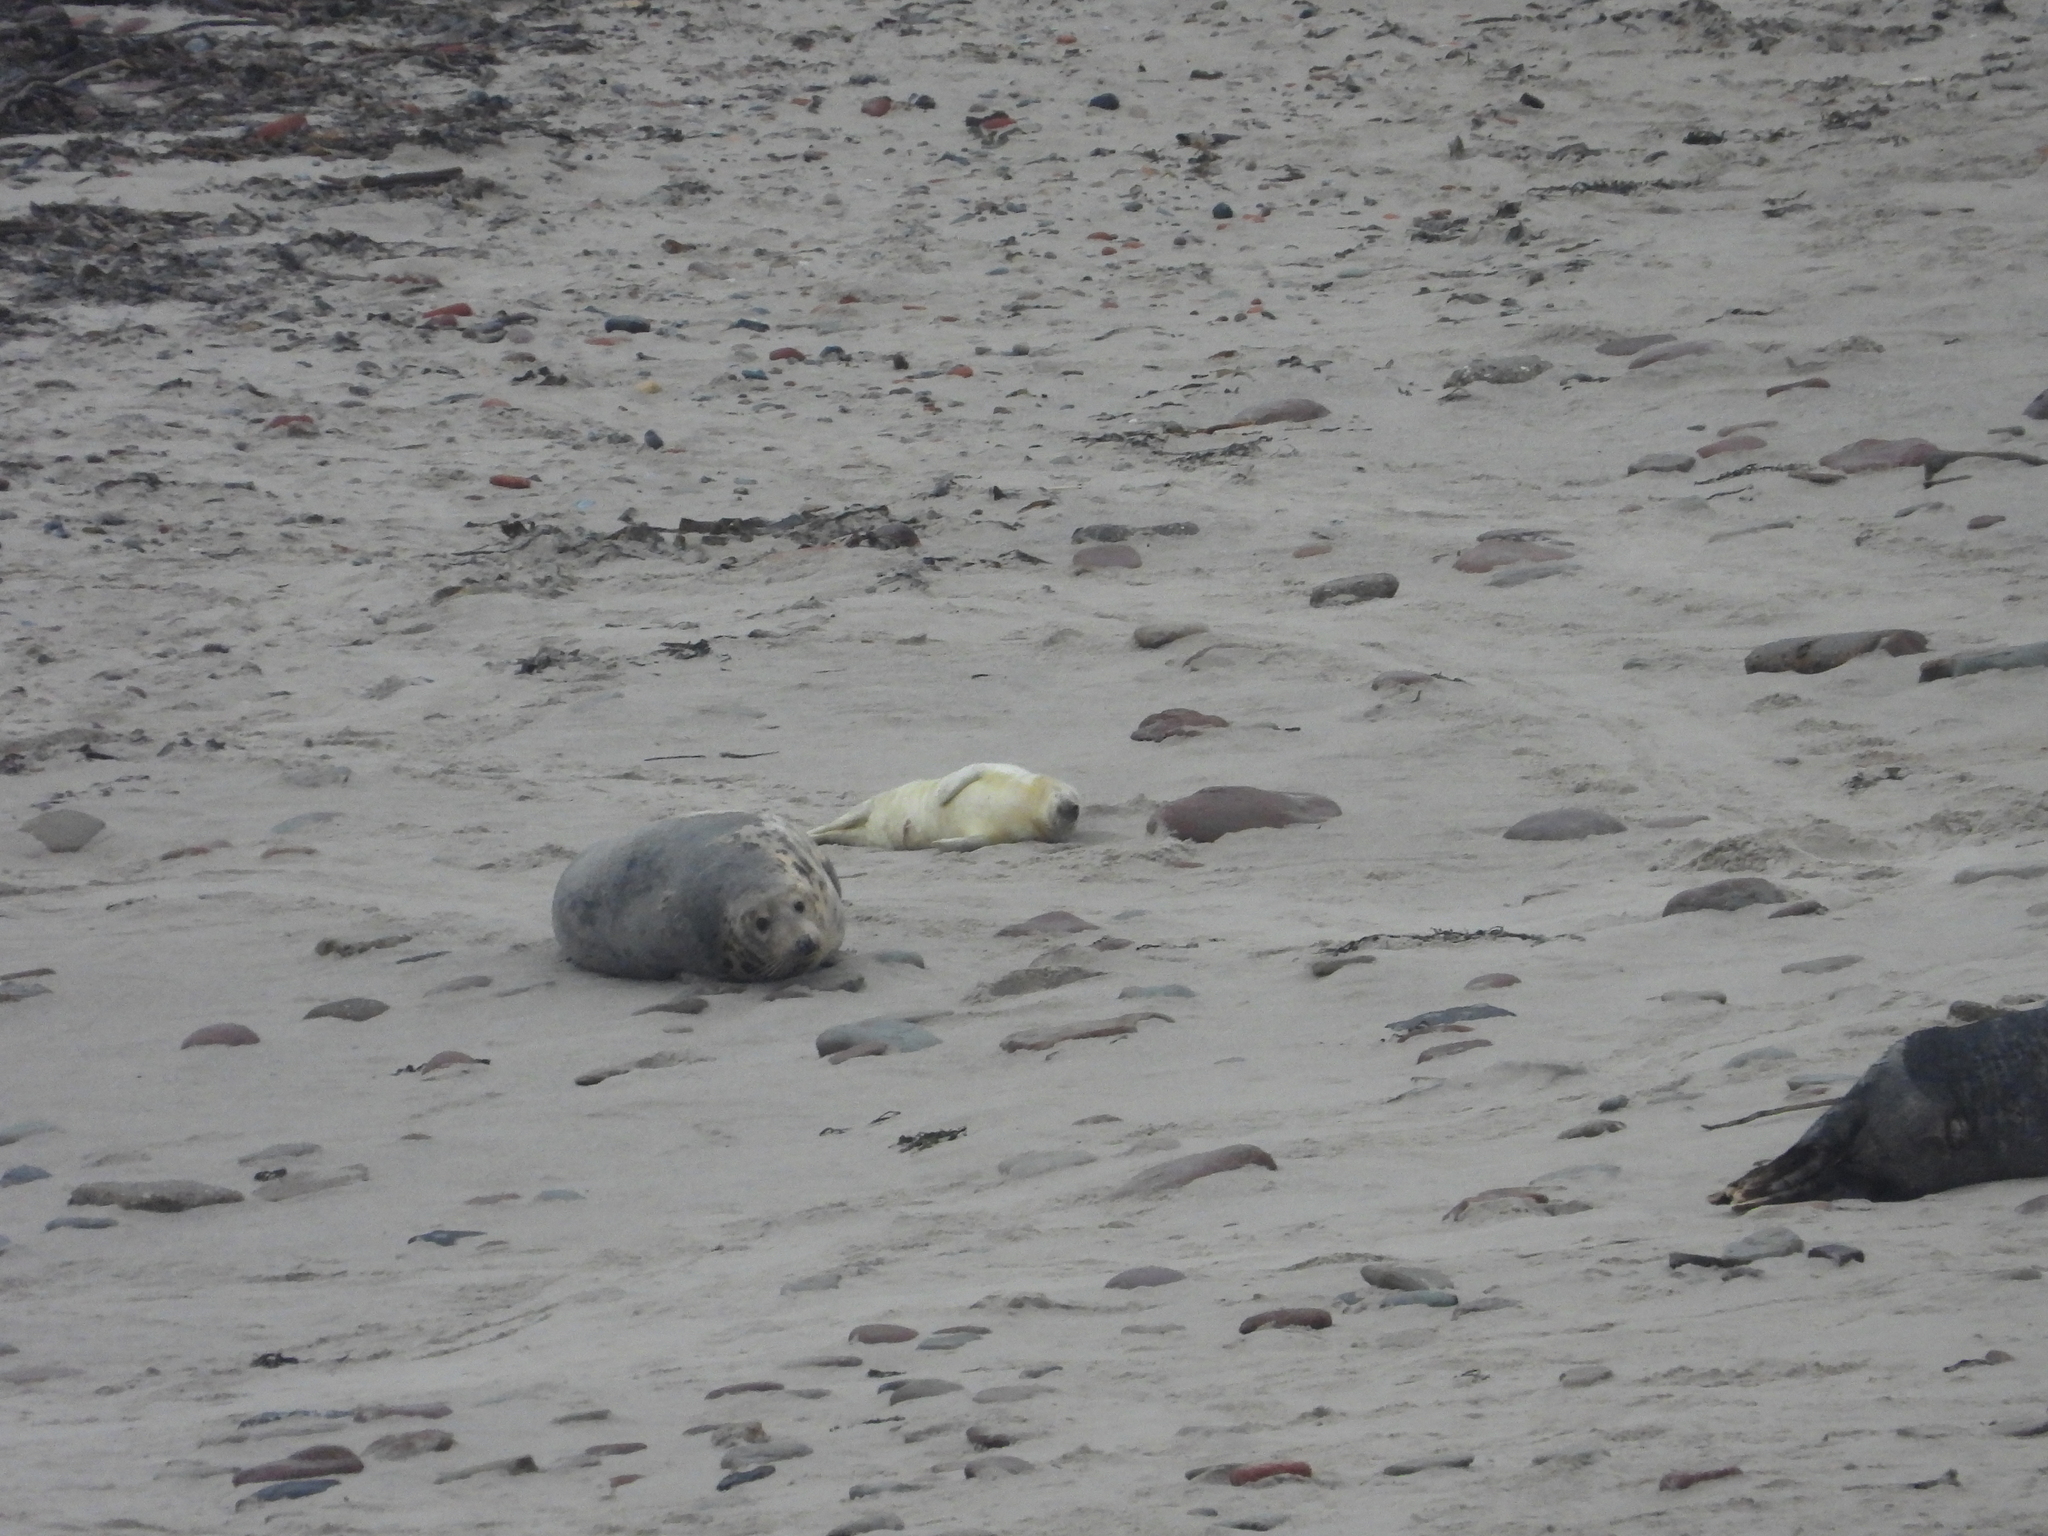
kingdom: Animalia
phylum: Chordata
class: Mammalia
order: Carnivora
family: Phocidae
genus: Halichoerus
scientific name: Halichoerus grypus
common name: Grey seal
